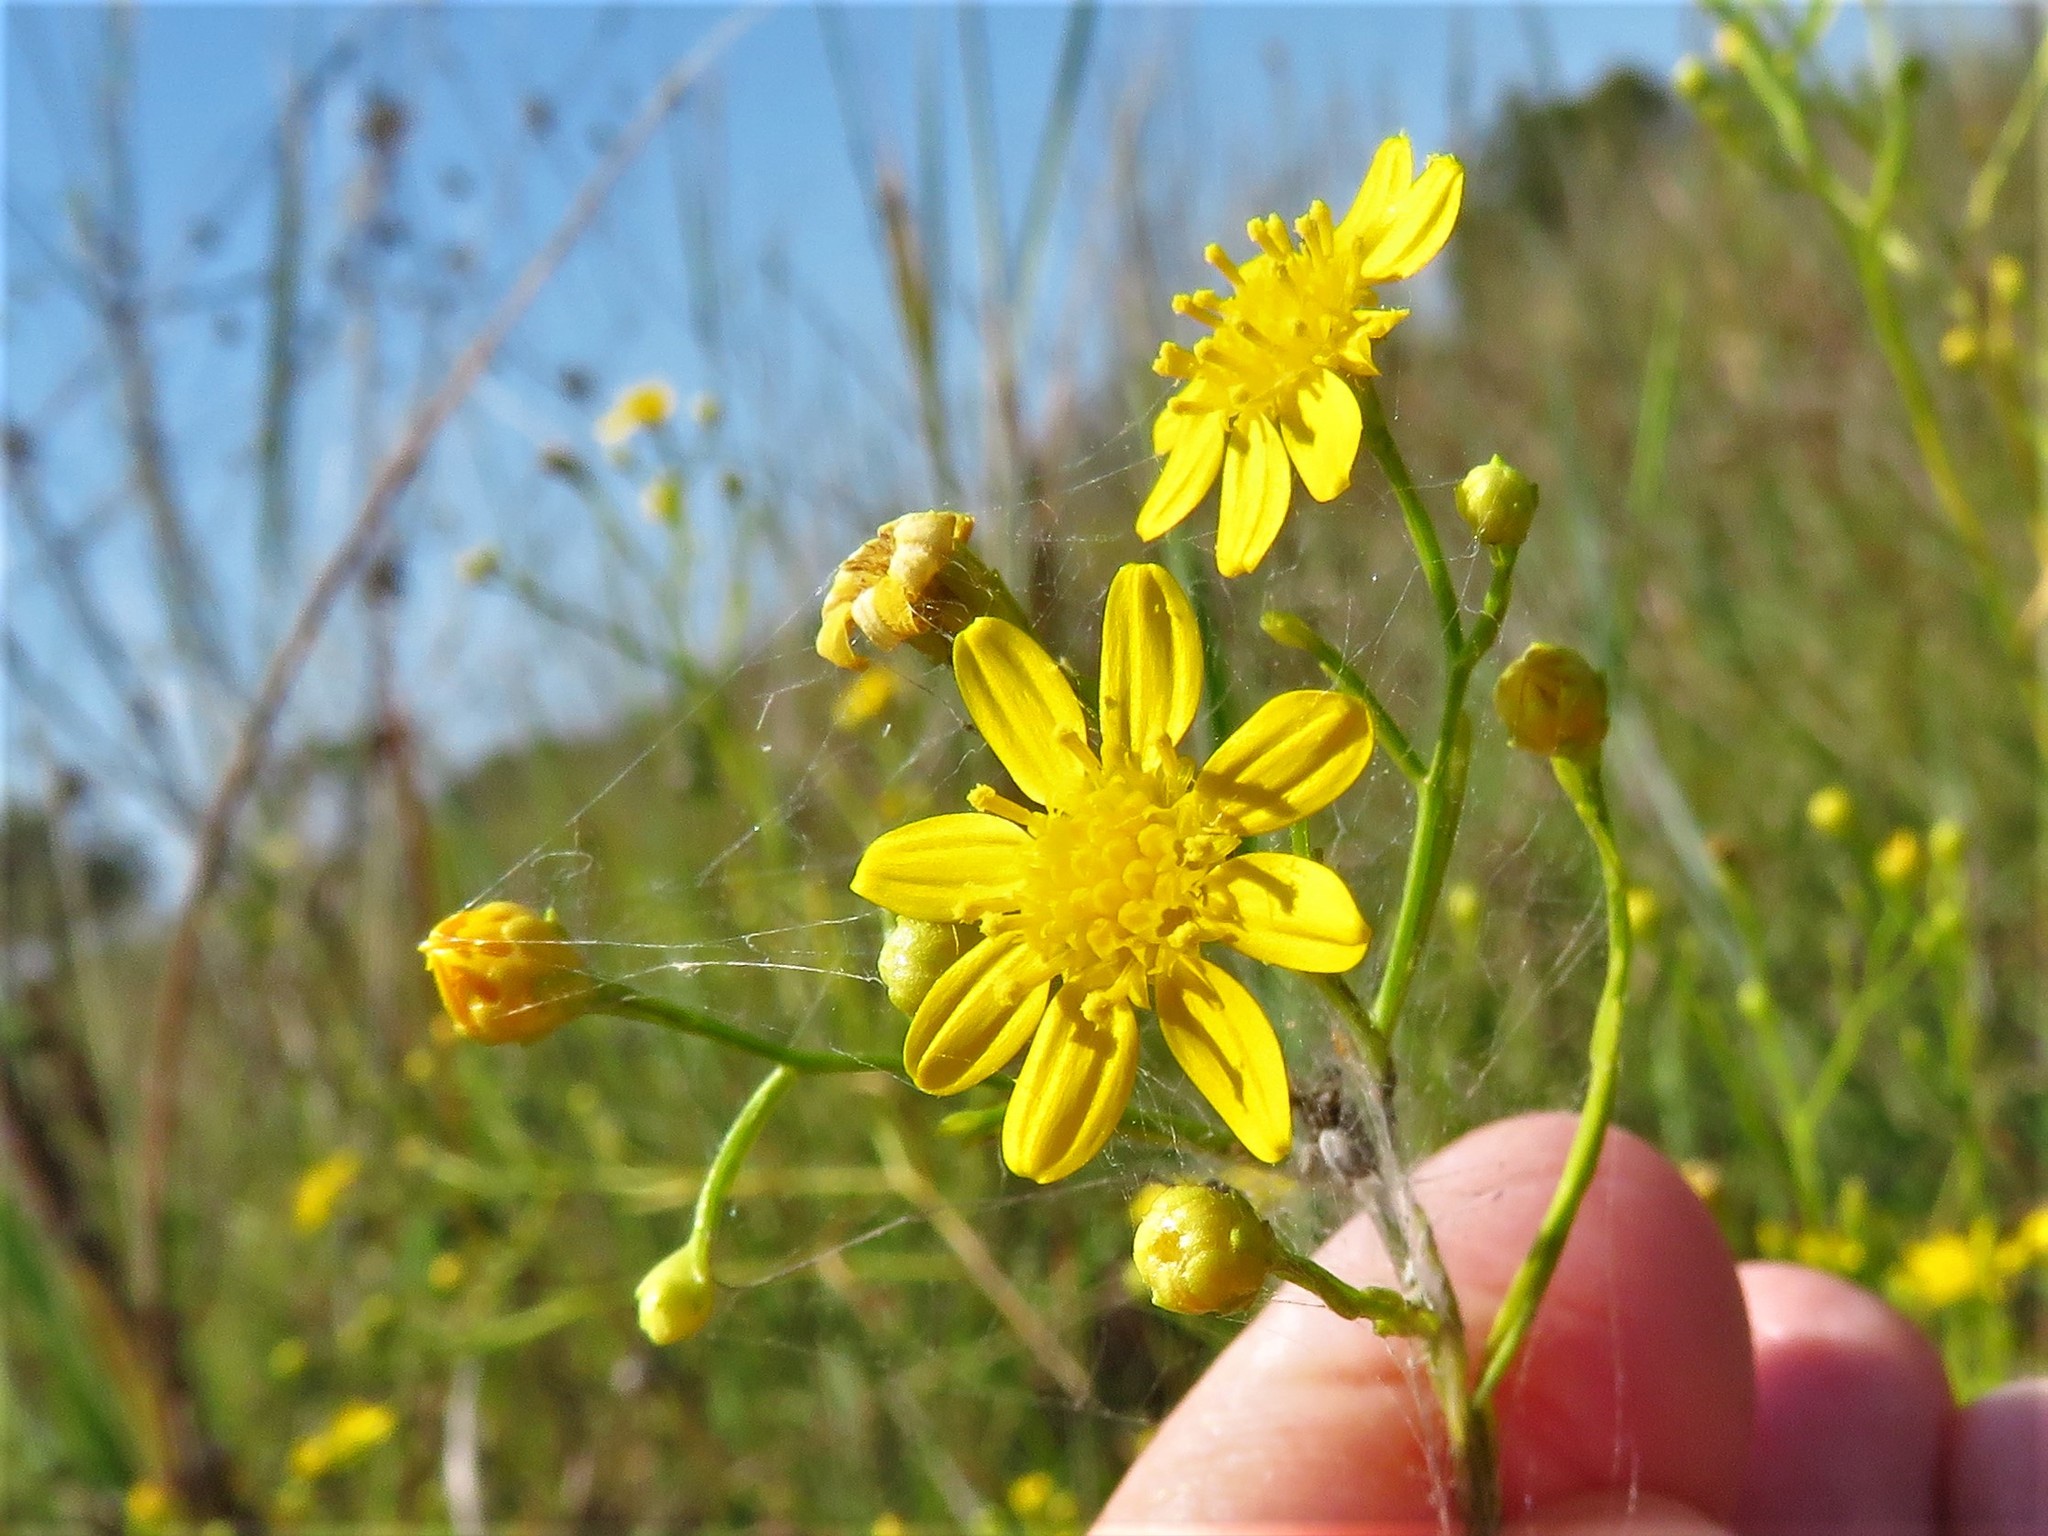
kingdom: Plantae
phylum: Tracheophyta
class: Magnoliopsida
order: Asterales
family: Asteraceae
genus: Amphiachyris
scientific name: Amphiachyris dracunculoides
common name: Broomweed
